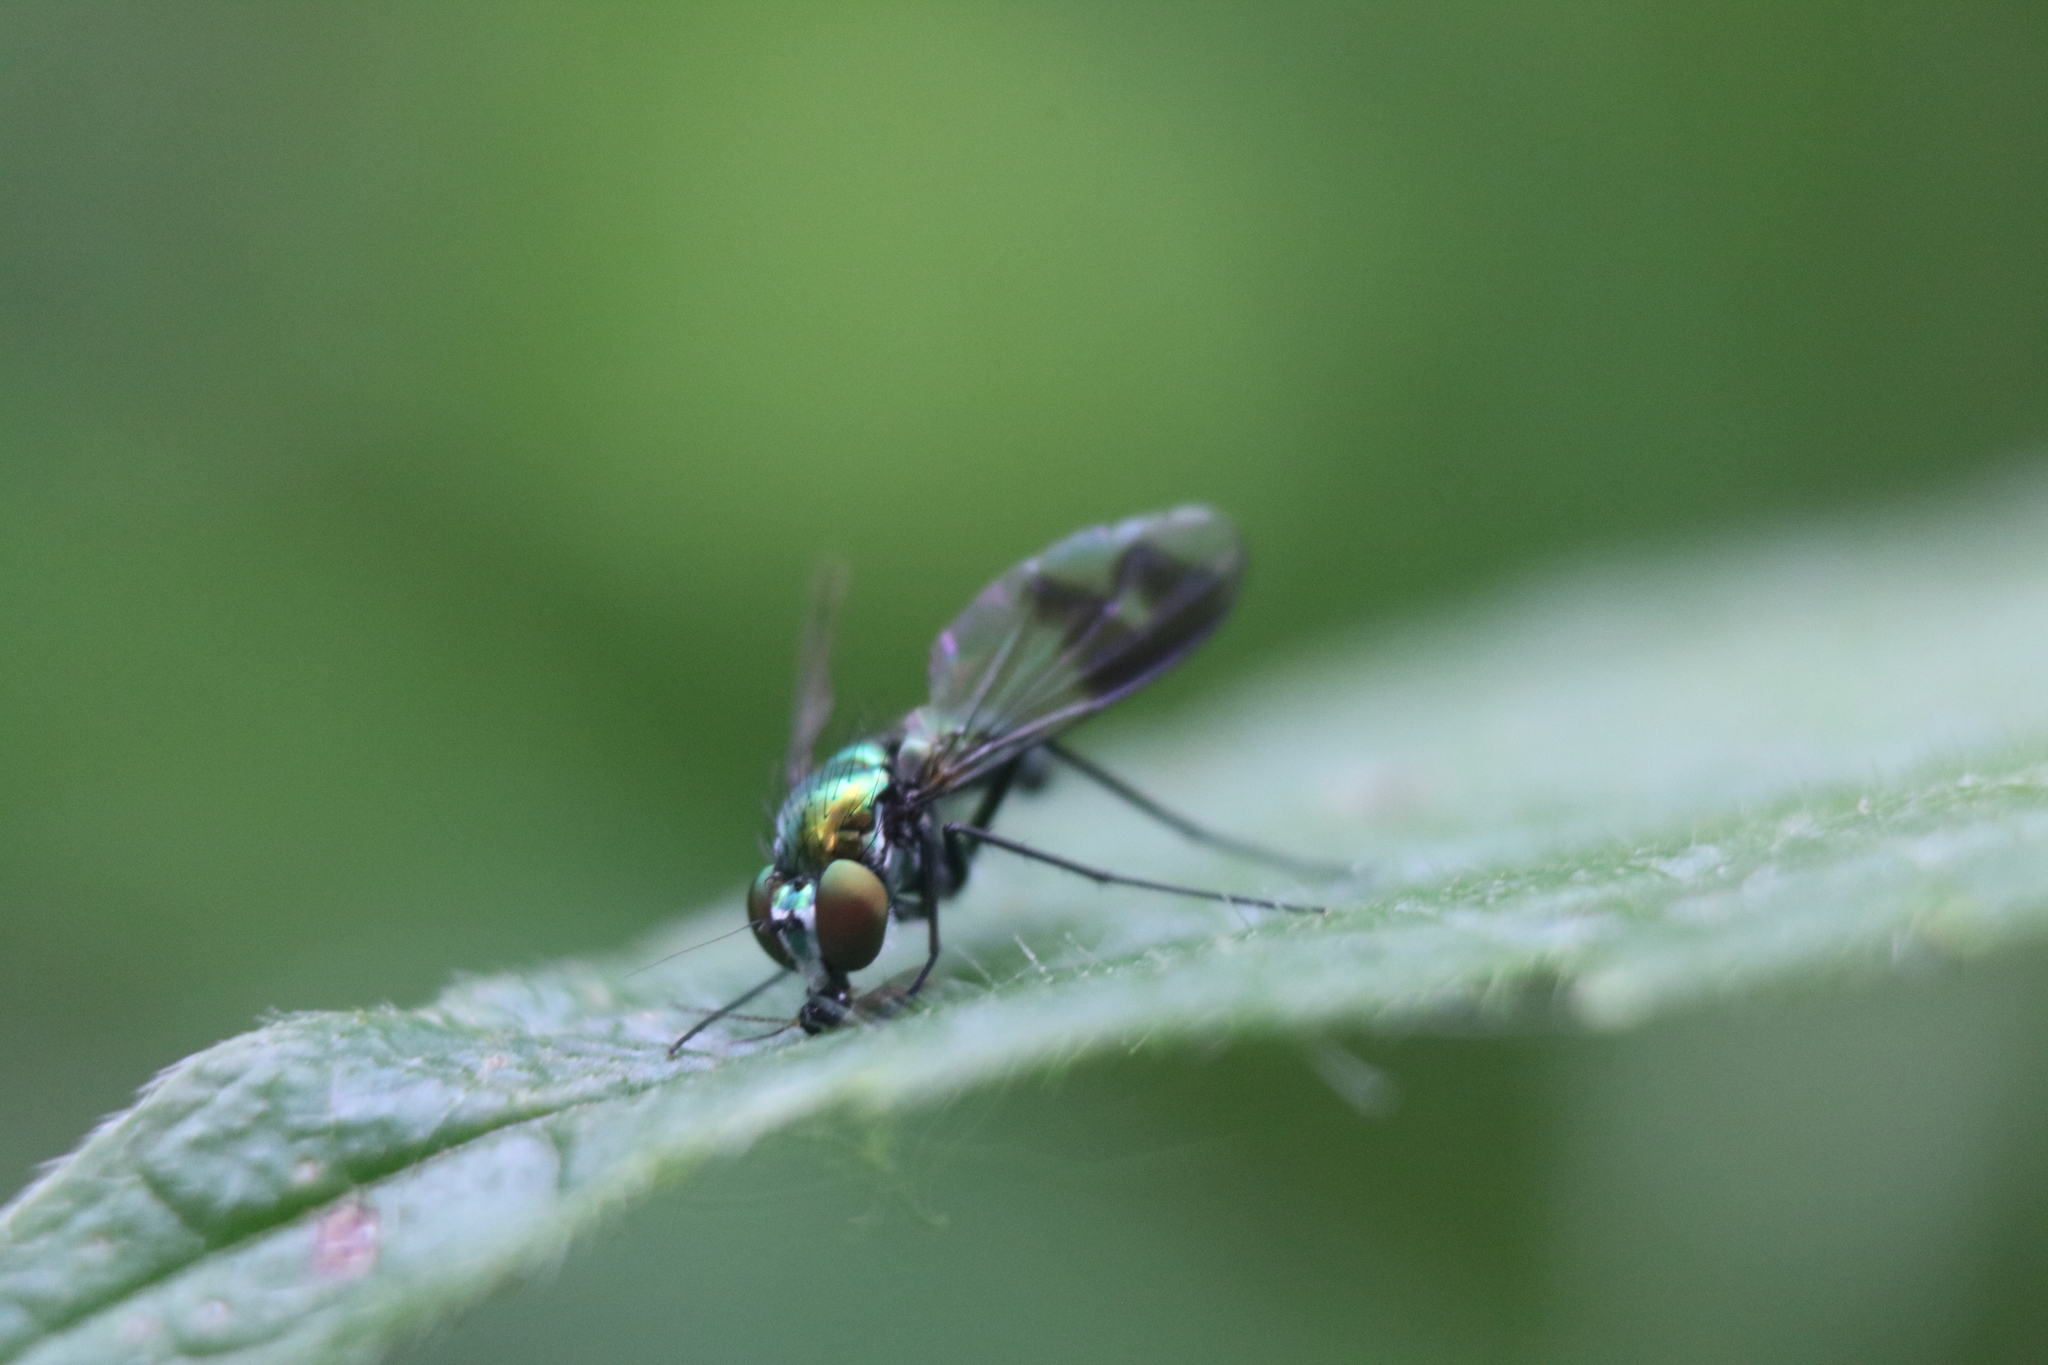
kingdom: Animalia
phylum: Arthropoda
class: Insecta
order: Diptera
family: Dolichopodidae
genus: Condylostylus
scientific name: Condylostylus patibulatus
